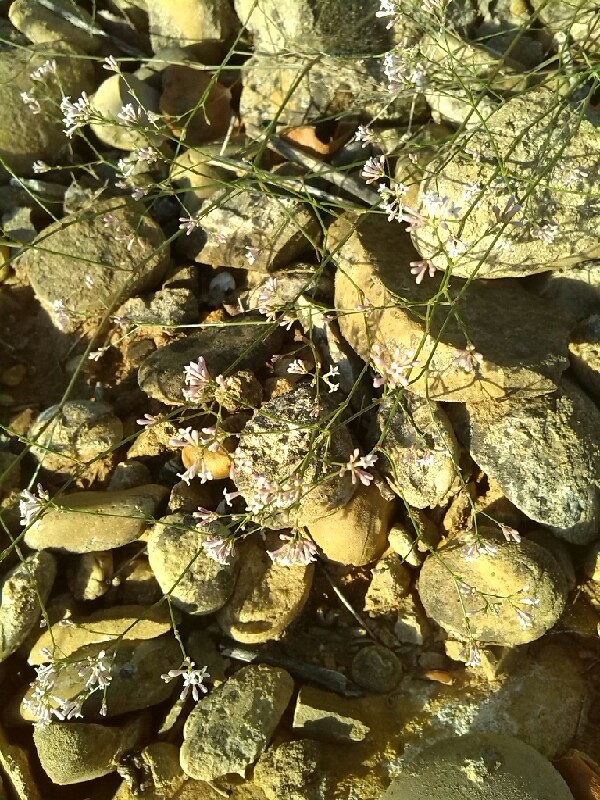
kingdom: Plantae
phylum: Tracheophyta
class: Magnoliopsida
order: Gentianales
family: Rubiaceae
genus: Cynanchica
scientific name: Cynanchica pyrenaica
